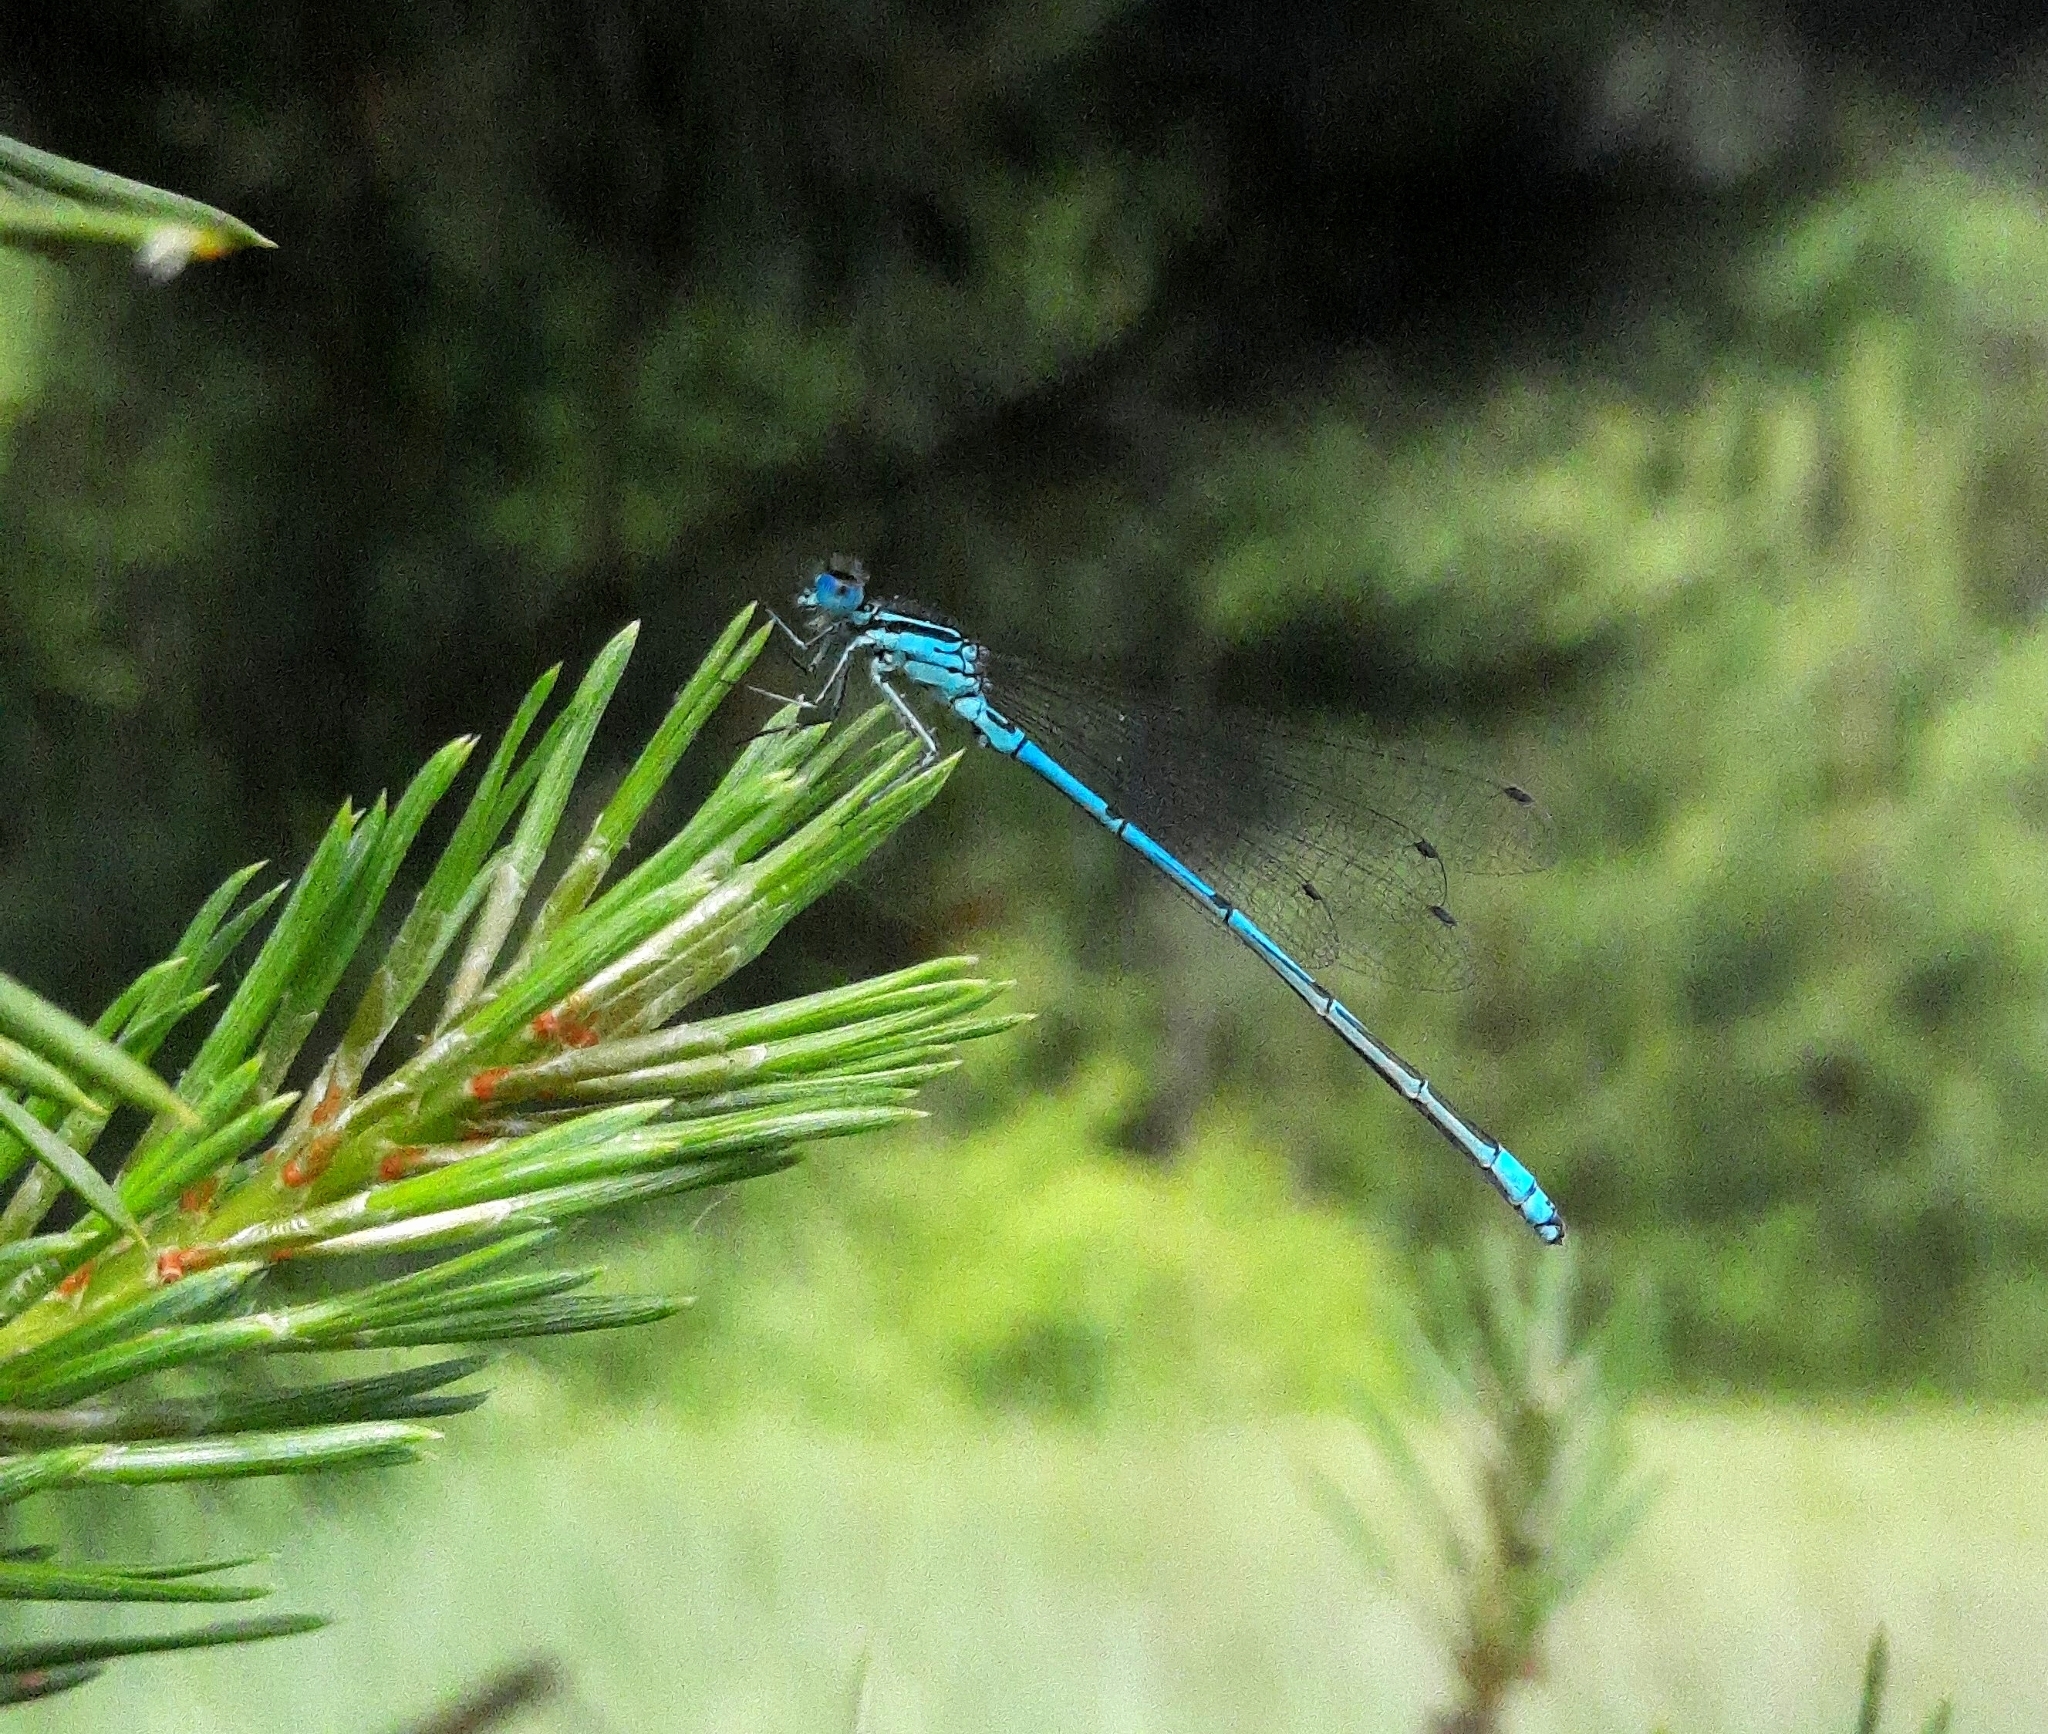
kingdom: Animalia
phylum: Arthropoda
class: Insecta
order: Odonata
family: Coenagrionidae
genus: Coenagrion
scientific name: Coenagrion puella
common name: Azure damselfly
